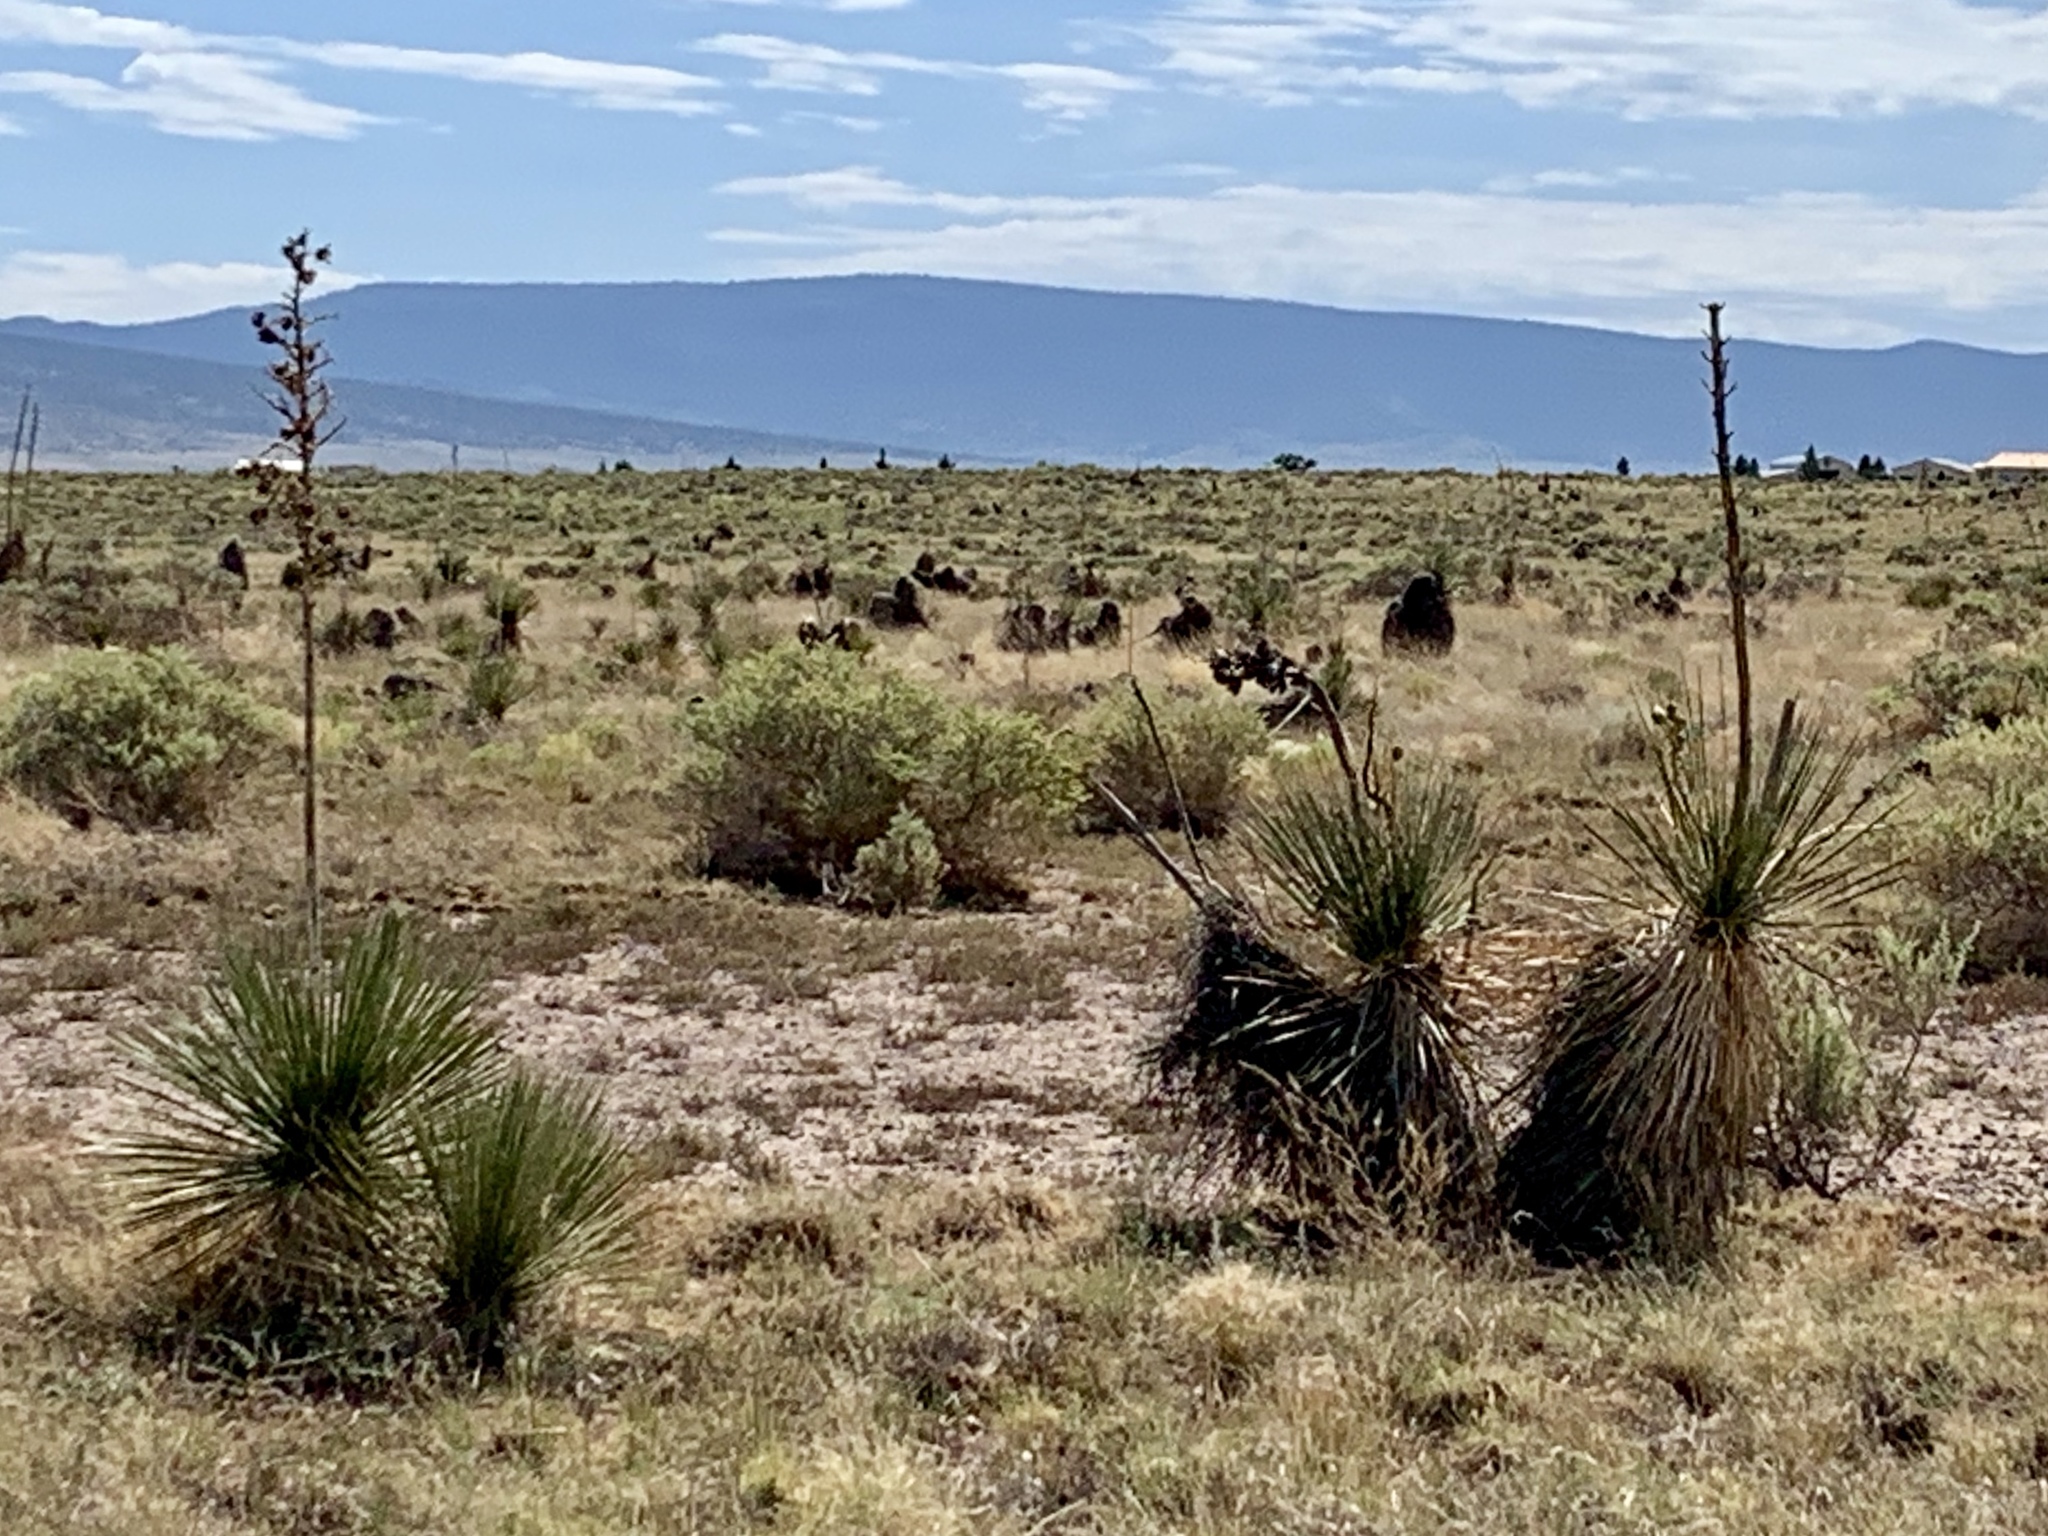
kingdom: Plantae
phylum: Tracheophyta
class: Liliopsida
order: Asparagales
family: Asparagaceae
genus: Yucca
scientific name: Yucca elata
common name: Palmella
